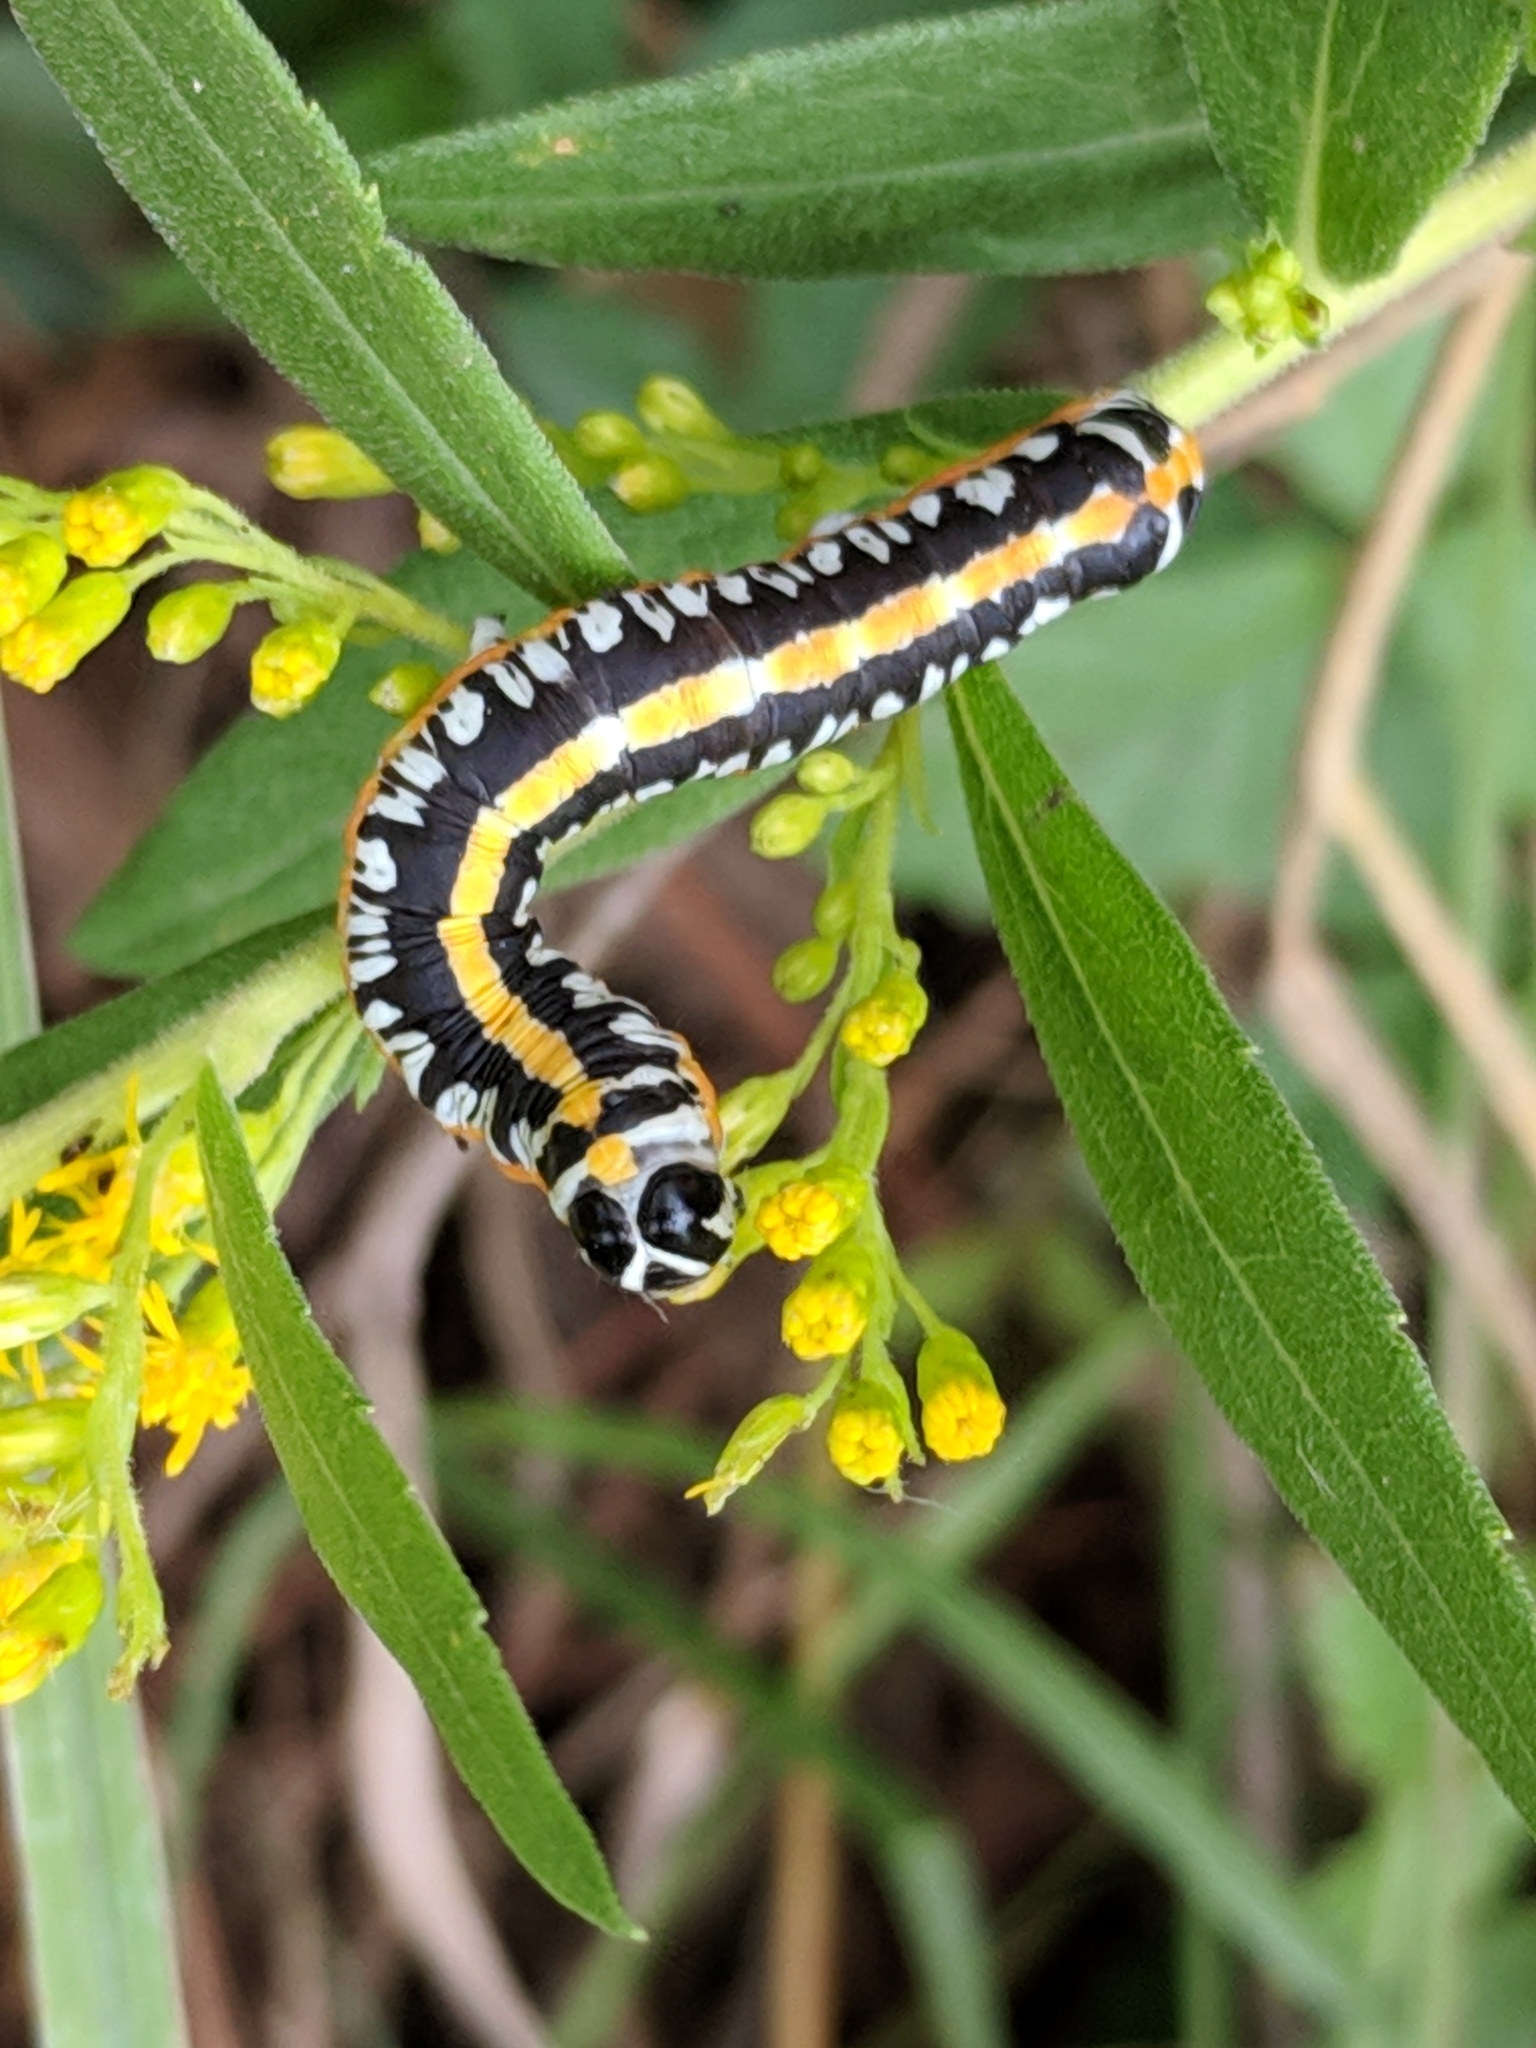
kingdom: Animalia
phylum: Arthropoda
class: Insecta
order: Lepidoptera
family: Noctuidae
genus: Cucullia
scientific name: Cucullia alfarata
